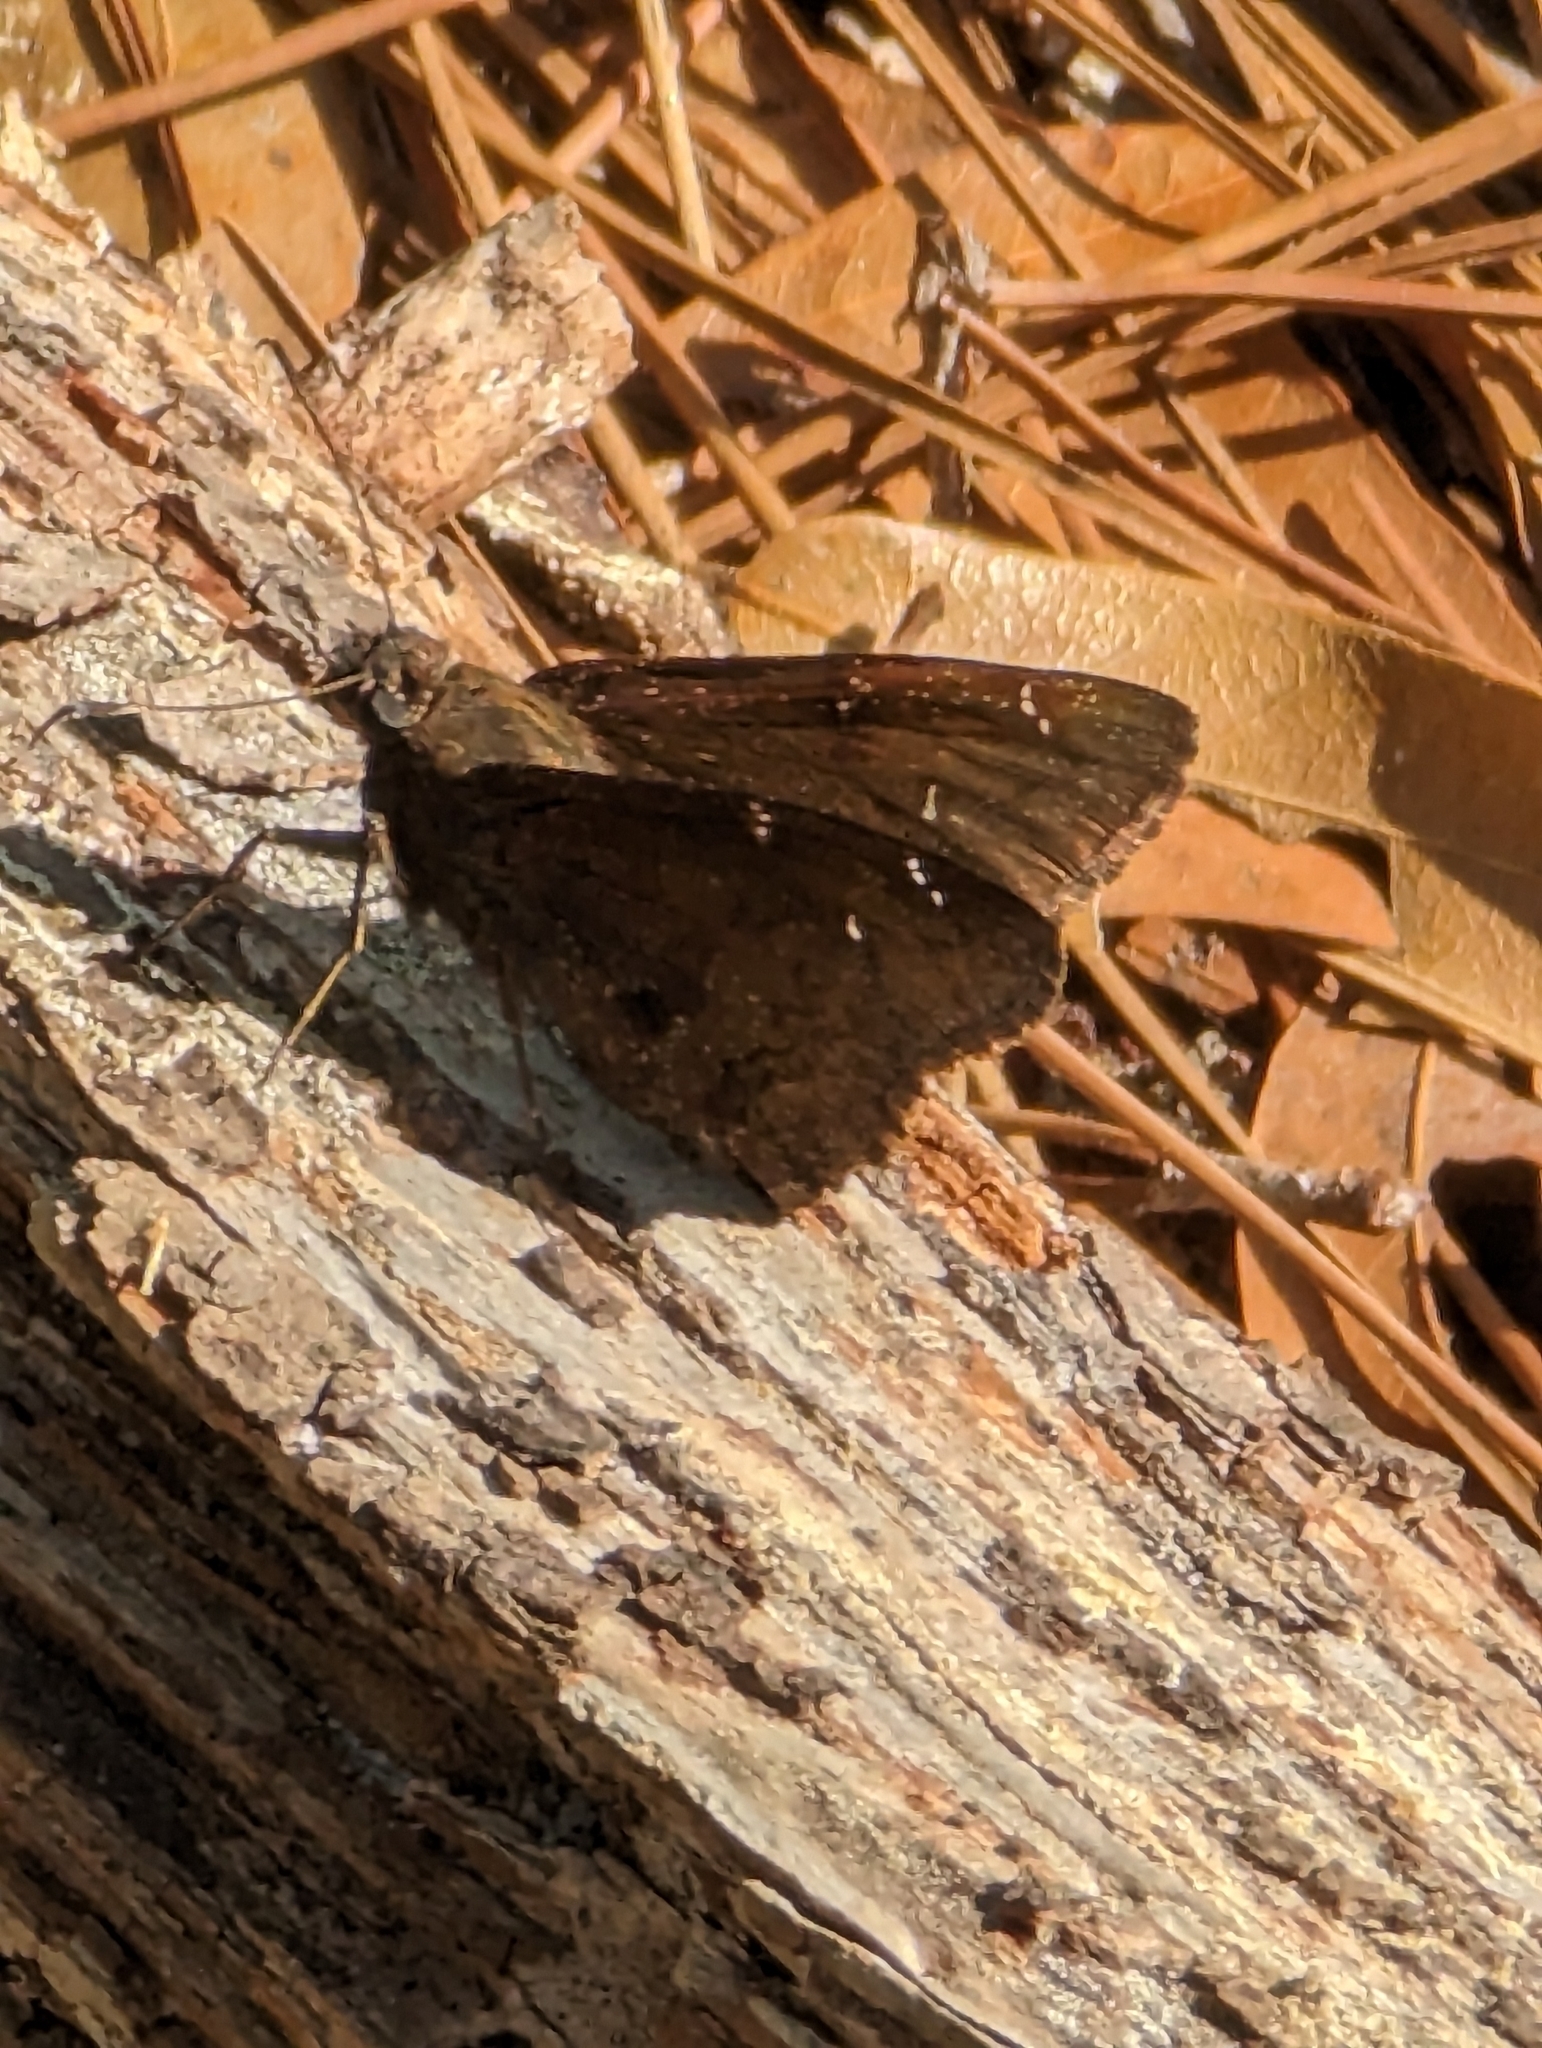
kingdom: Animalia
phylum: Arthropoda
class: Insecta
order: Lepidoptera
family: Hesperiidae
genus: Thorybes
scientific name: Thorybes pylades
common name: Northern cloudywing
